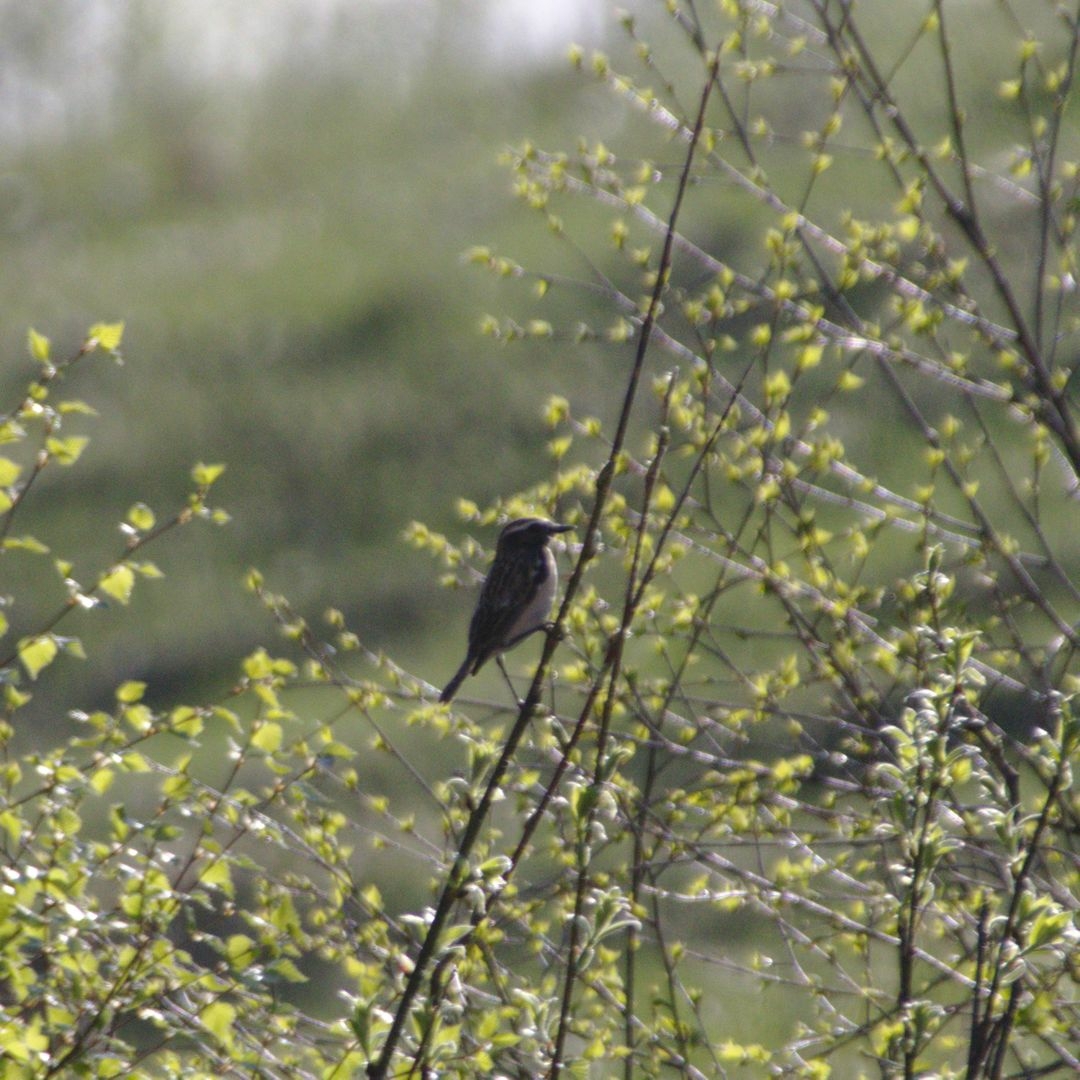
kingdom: Animalia
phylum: Chordata
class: Aves
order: Passeriformes
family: Muscicapidae
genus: Saxicola
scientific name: Saxicola rubetra
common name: Whinchat
